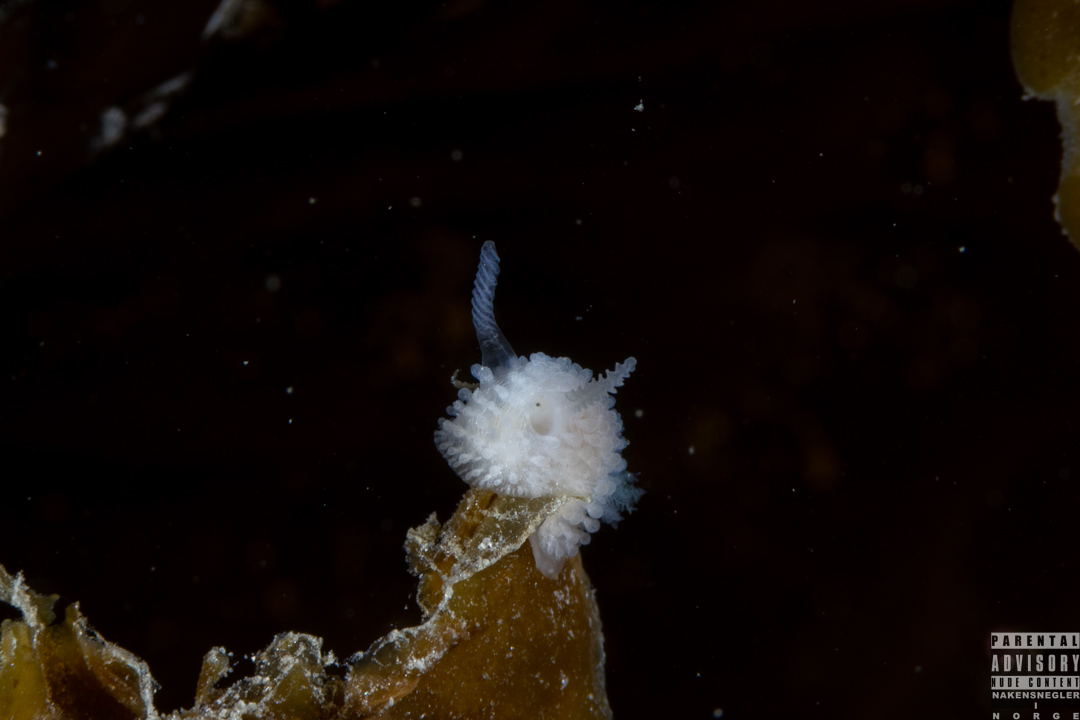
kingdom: Animalia
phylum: Mollusca
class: Gastropoda
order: Nudibranchia
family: Onchidorididae
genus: Onchidoris
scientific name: Onchidoris muricata
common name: Rough doris
